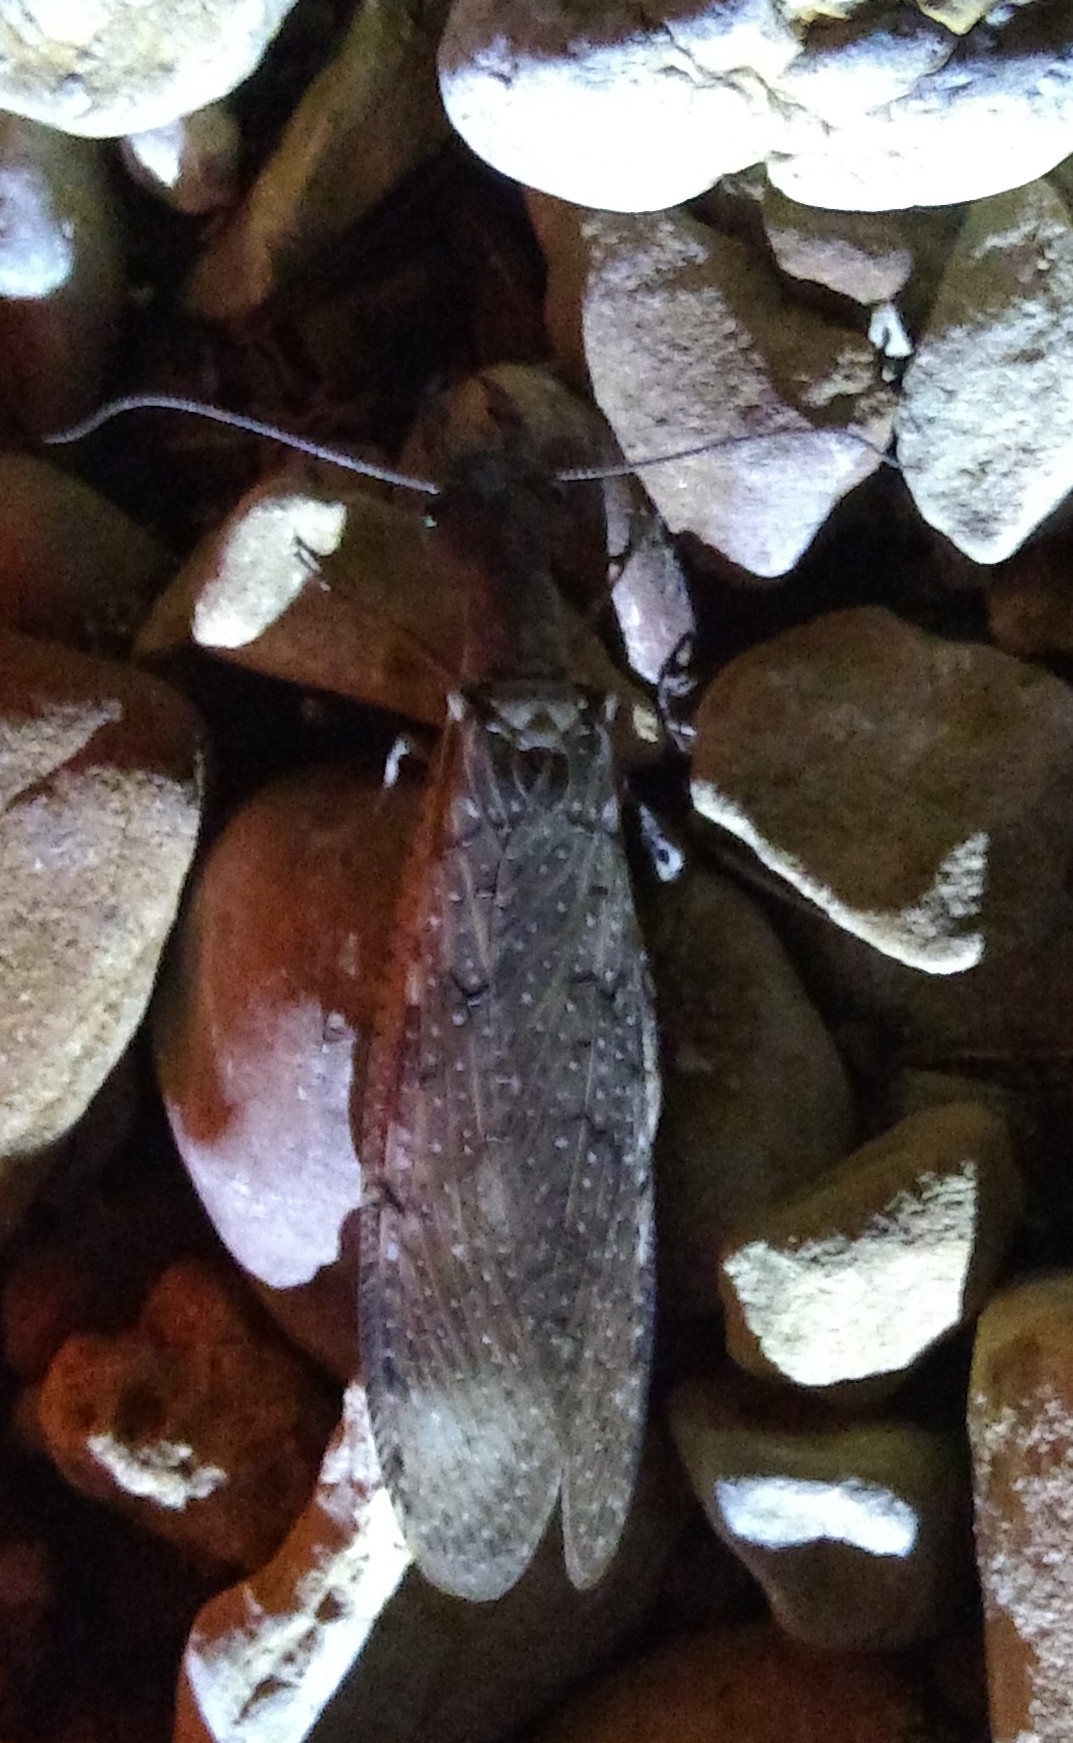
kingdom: Animalia
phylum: Arthropoda
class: Insecta
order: Megaloptera
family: Corydalidae
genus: Corydalus
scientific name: Corydalus cornutus
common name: Dobsonfly
